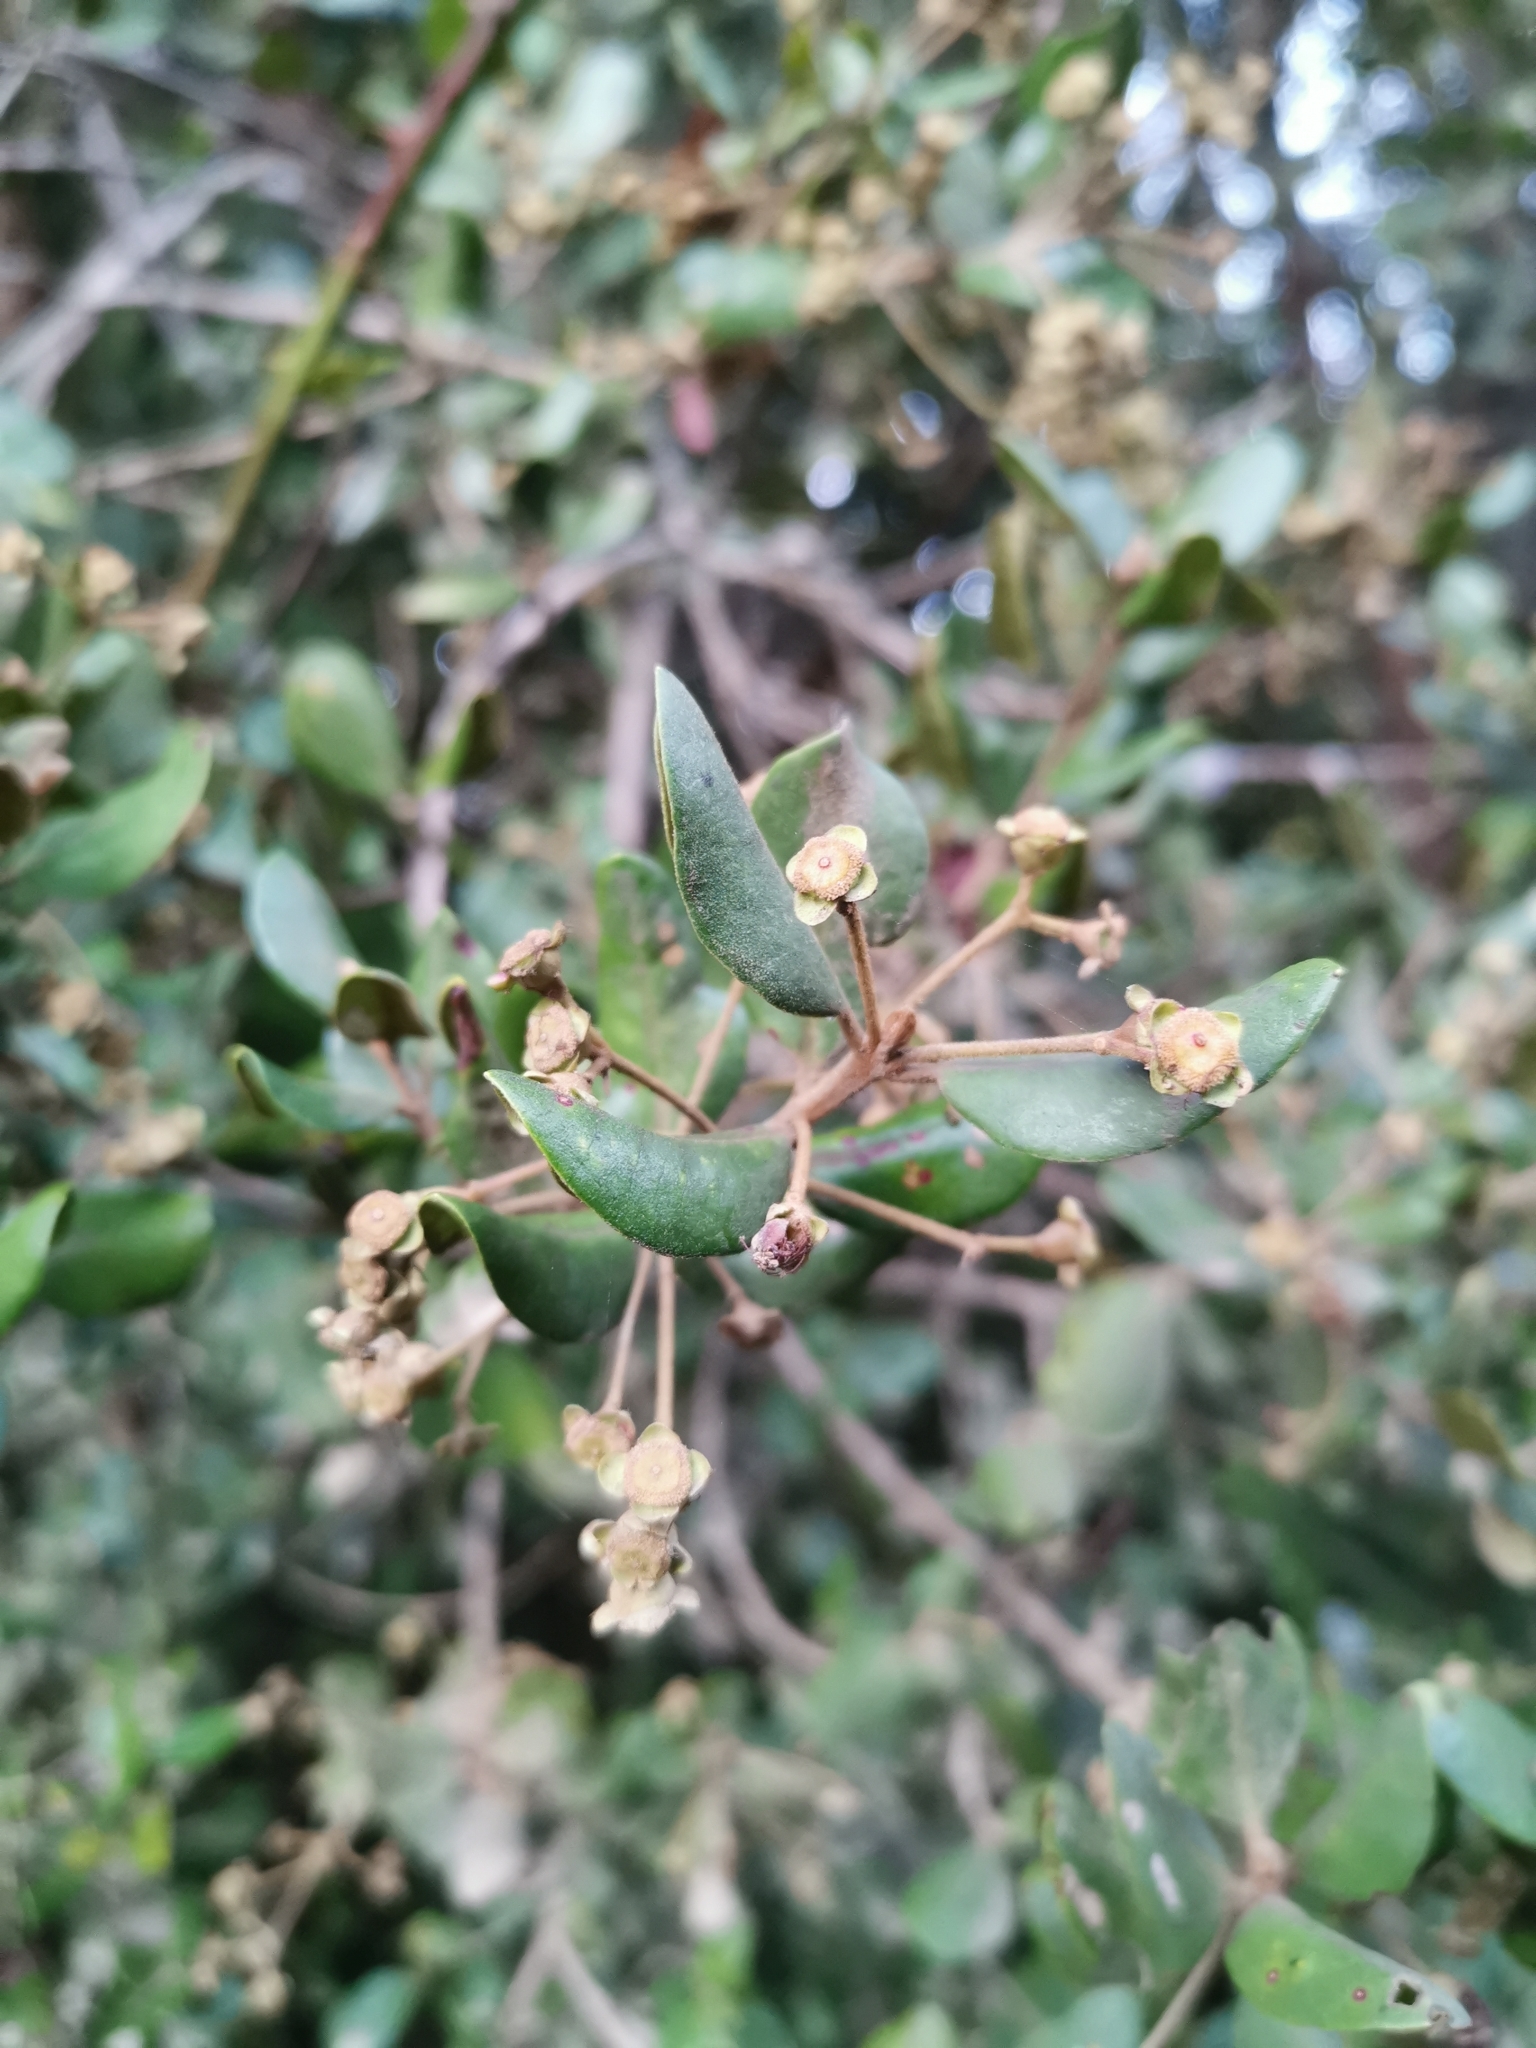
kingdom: Plantae
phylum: Tracheophyta
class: Magnoliopsida
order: Myrtales
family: Myrtaceae
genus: Myrceugenia
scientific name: Myrceugenia exsucca
